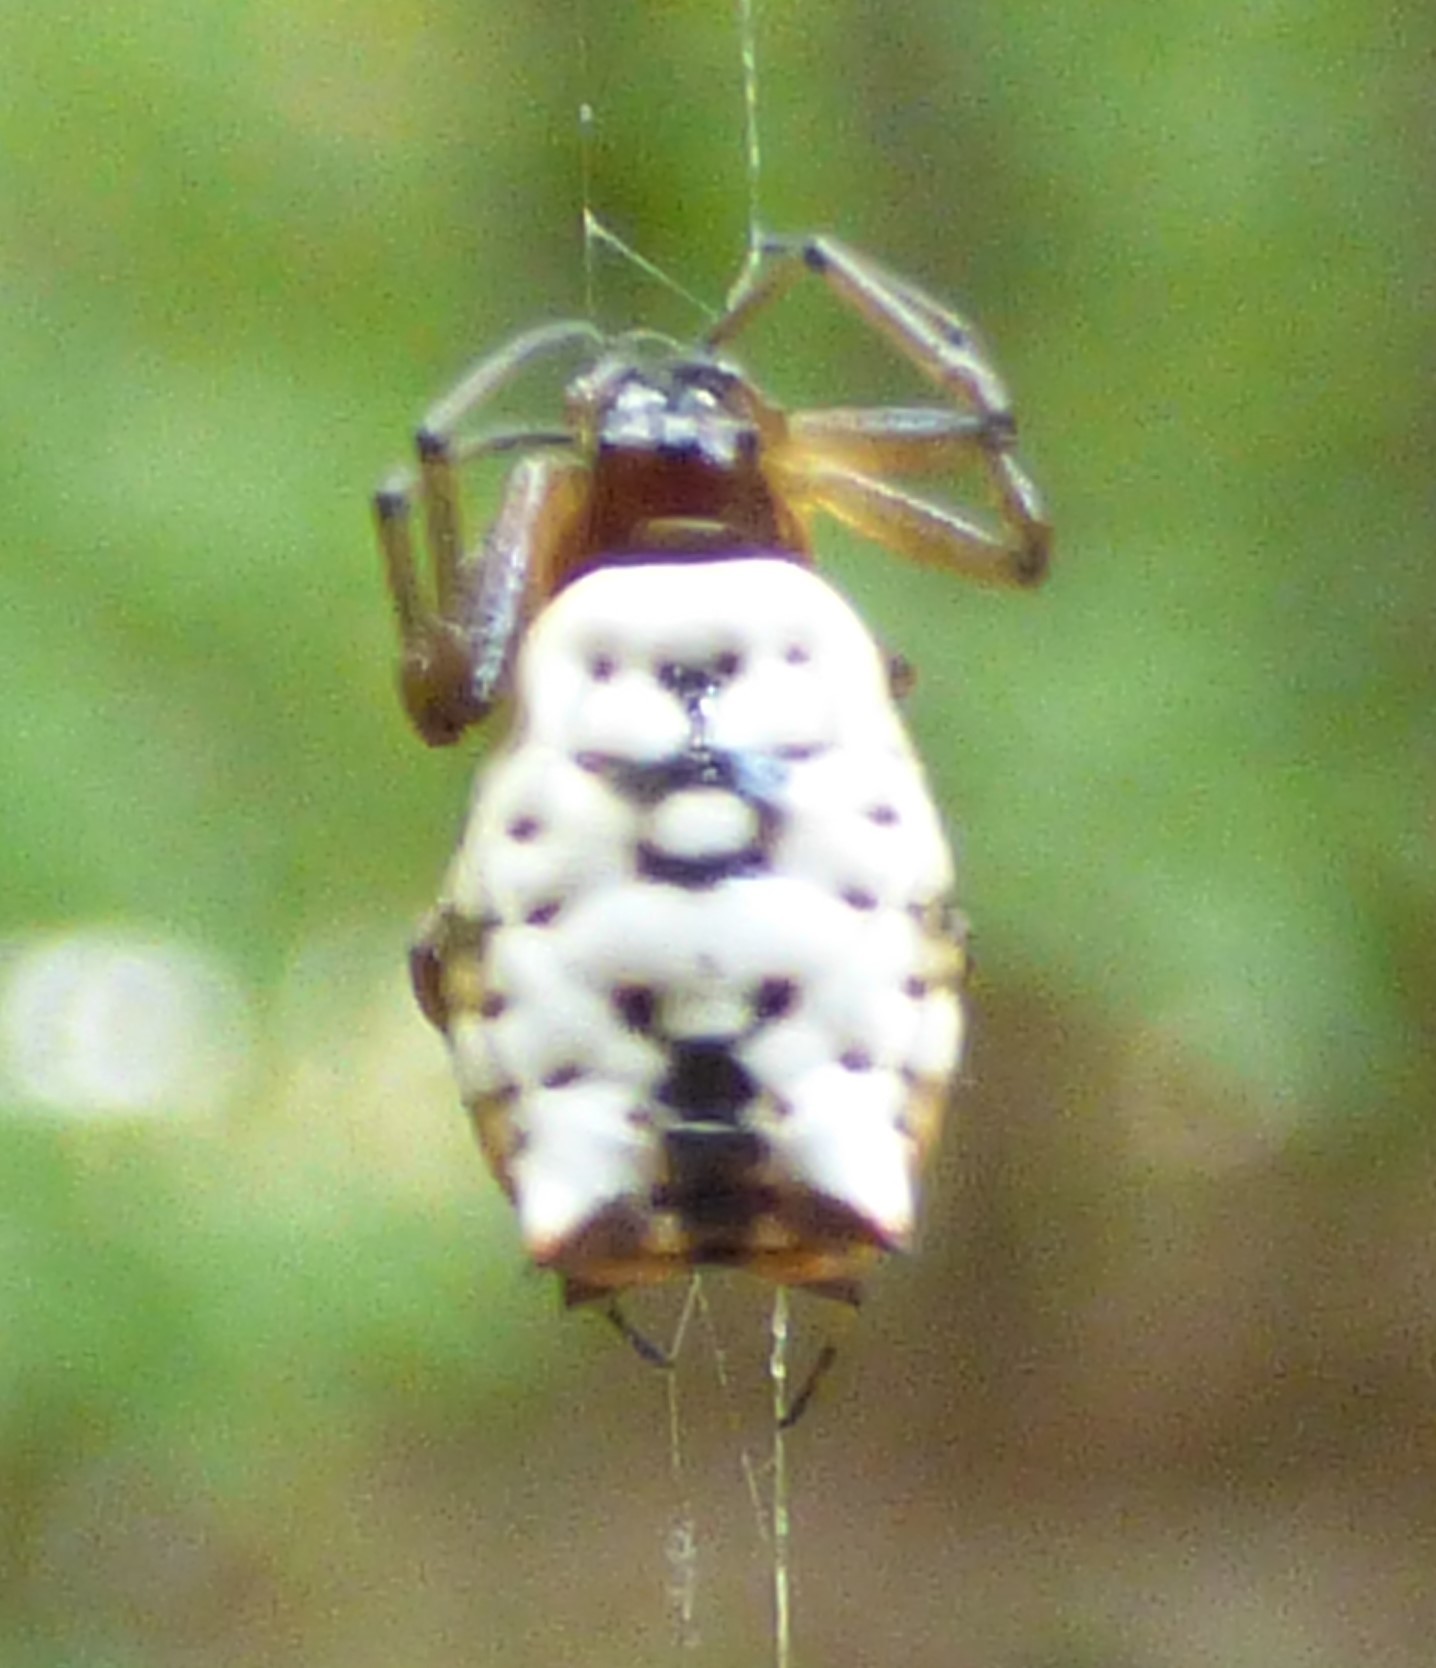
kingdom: Animalia
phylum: Arthropoda
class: Arachnida
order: Araneae
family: Araneidae
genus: Micrathena
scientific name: Micrathena mitrata
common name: Orb weavers
